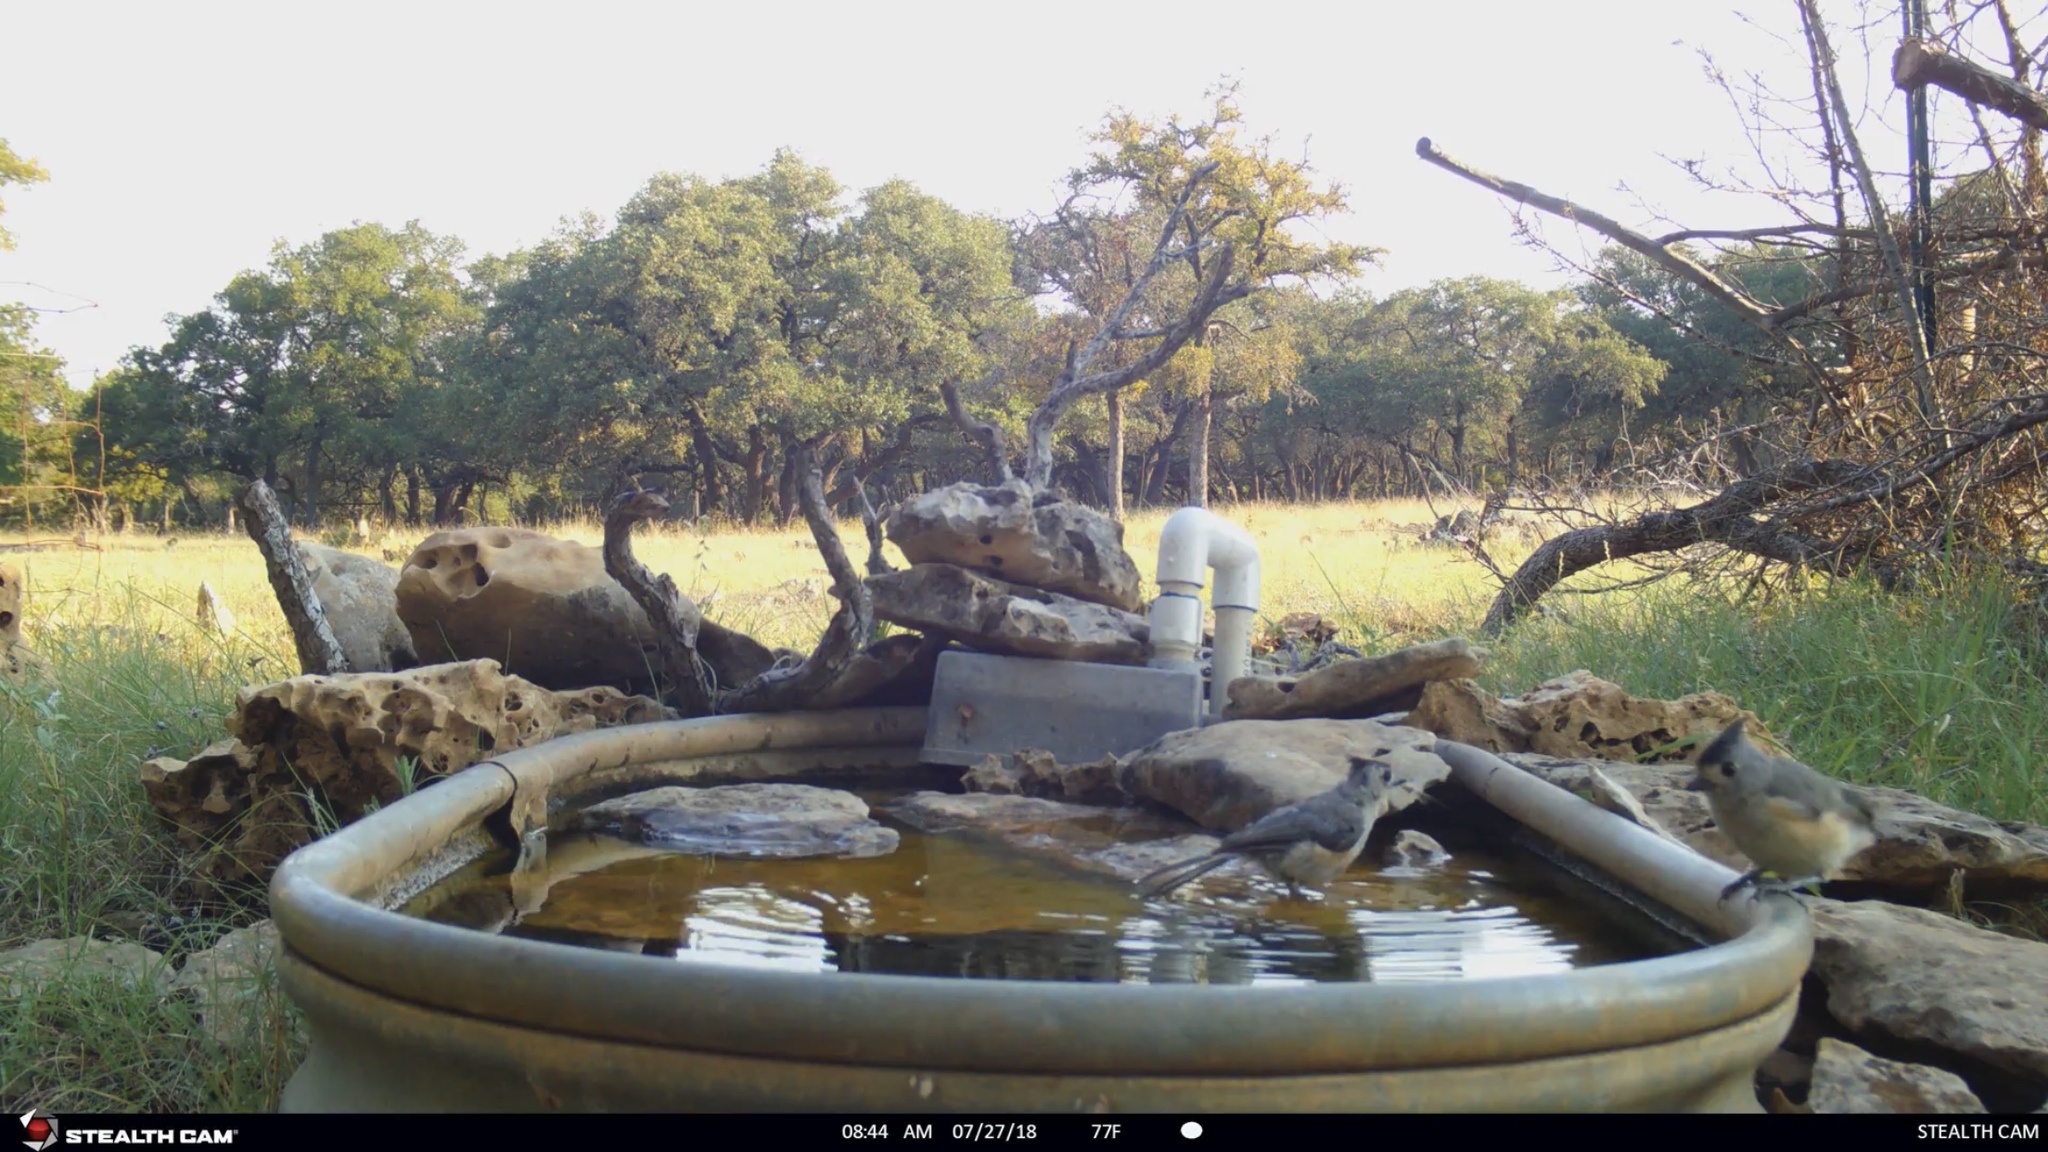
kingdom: Animalia
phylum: Chordata
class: Aves
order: Passeriformes
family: Paridae
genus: Baeolophus
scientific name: Baeolophus atricristatus
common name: Black-crested titmouse
